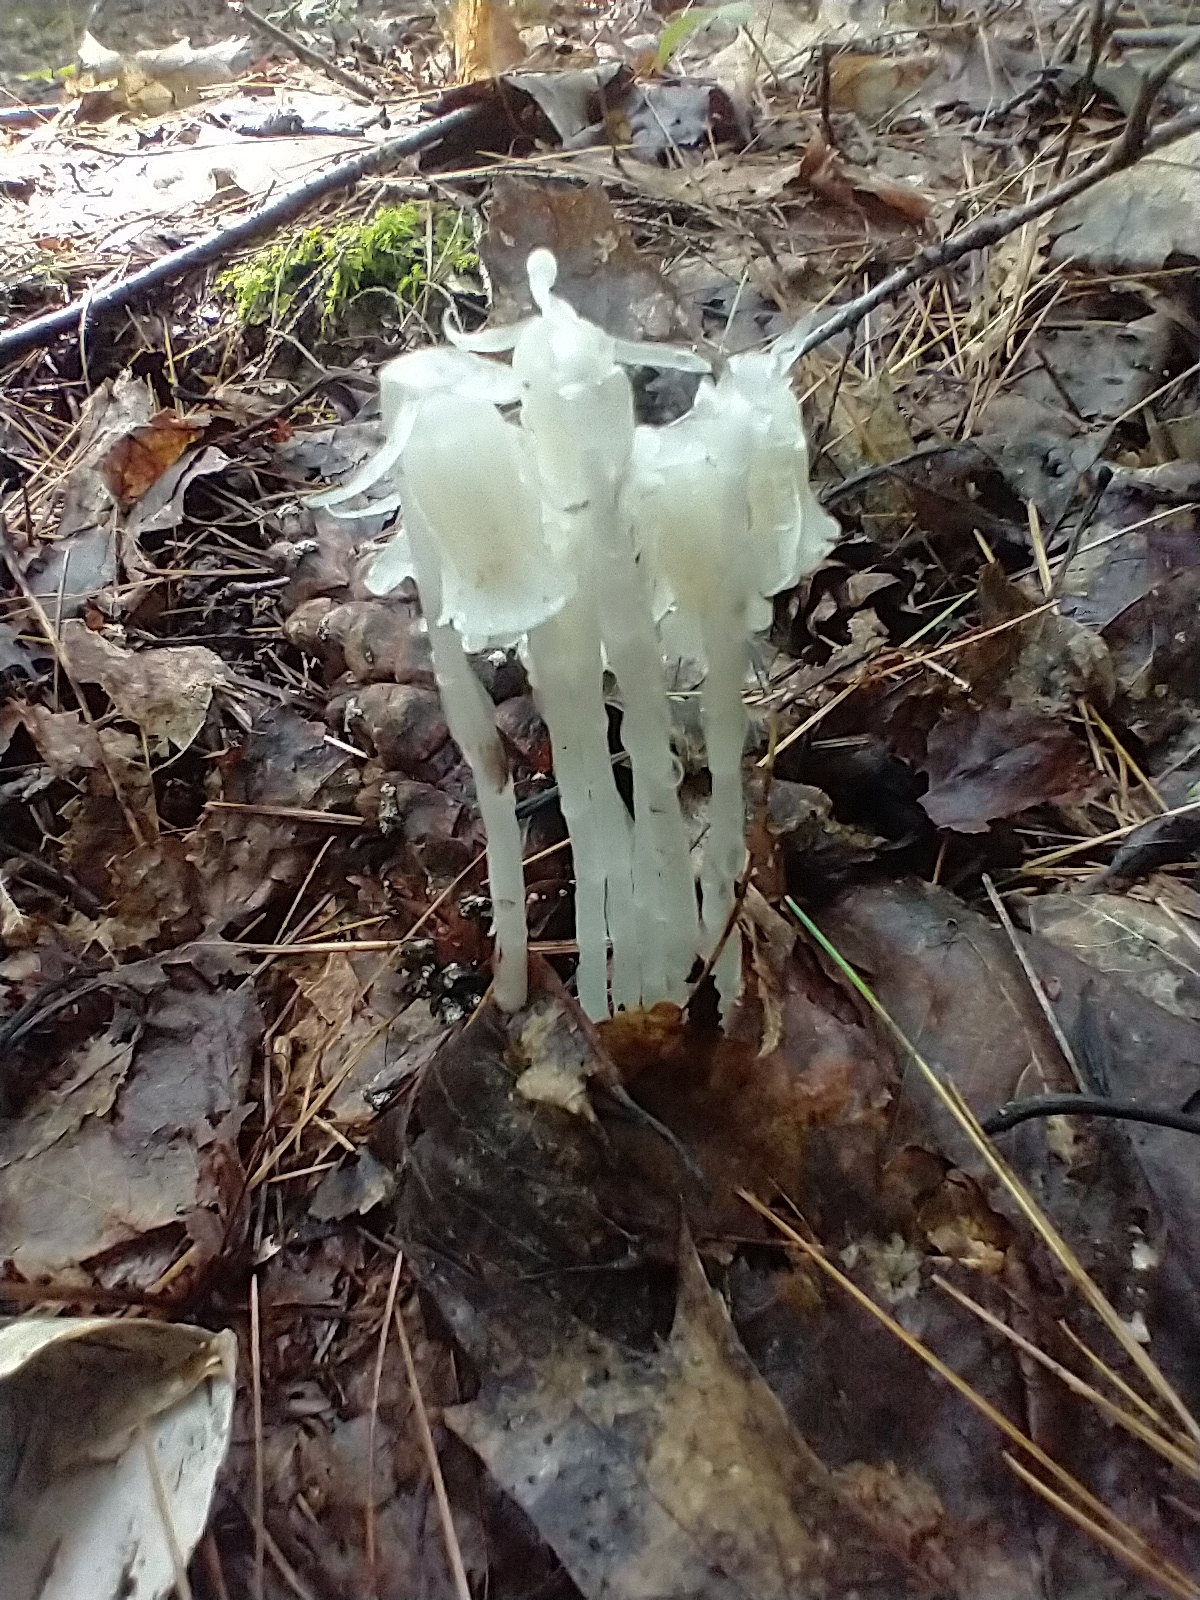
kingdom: Plantae
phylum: Tracheophyta
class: Magnoliopsida
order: Ericales
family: Ericaceae
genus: Monotropa
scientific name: Monotropa uniflora
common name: Convulsion root
